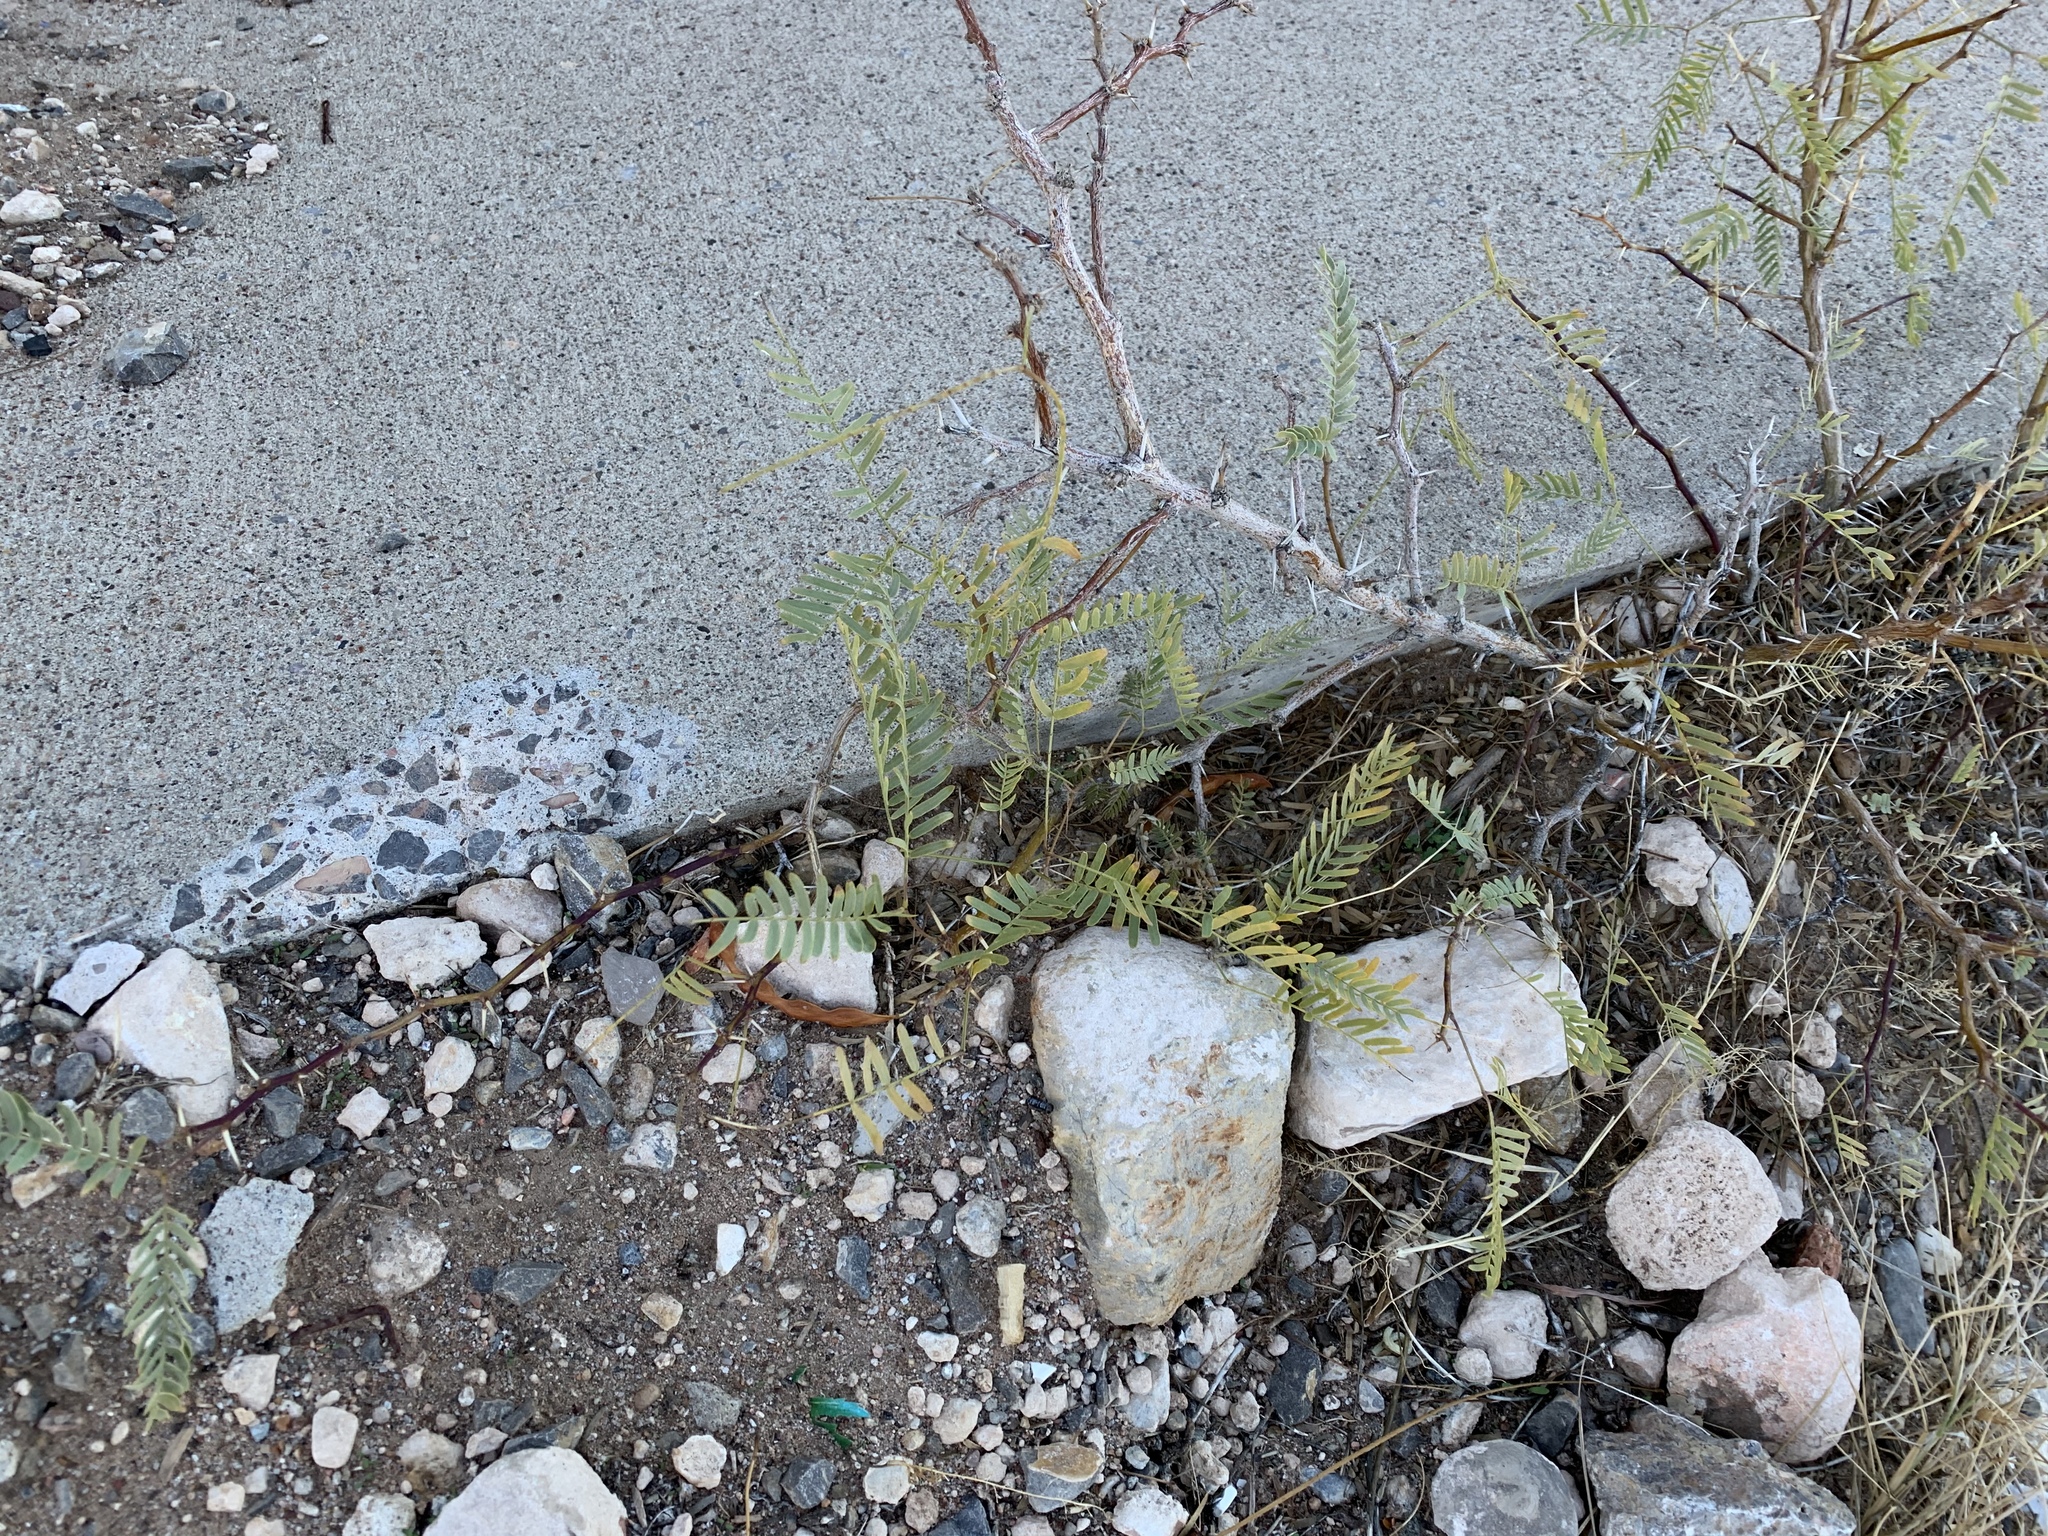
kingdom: Plantae
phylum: Tracheophyta
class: Magnoliopsida
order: Fabales
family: Fabaceae
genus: Prosopis
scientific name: Prosopis glandulosa
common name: Honey mesquite
